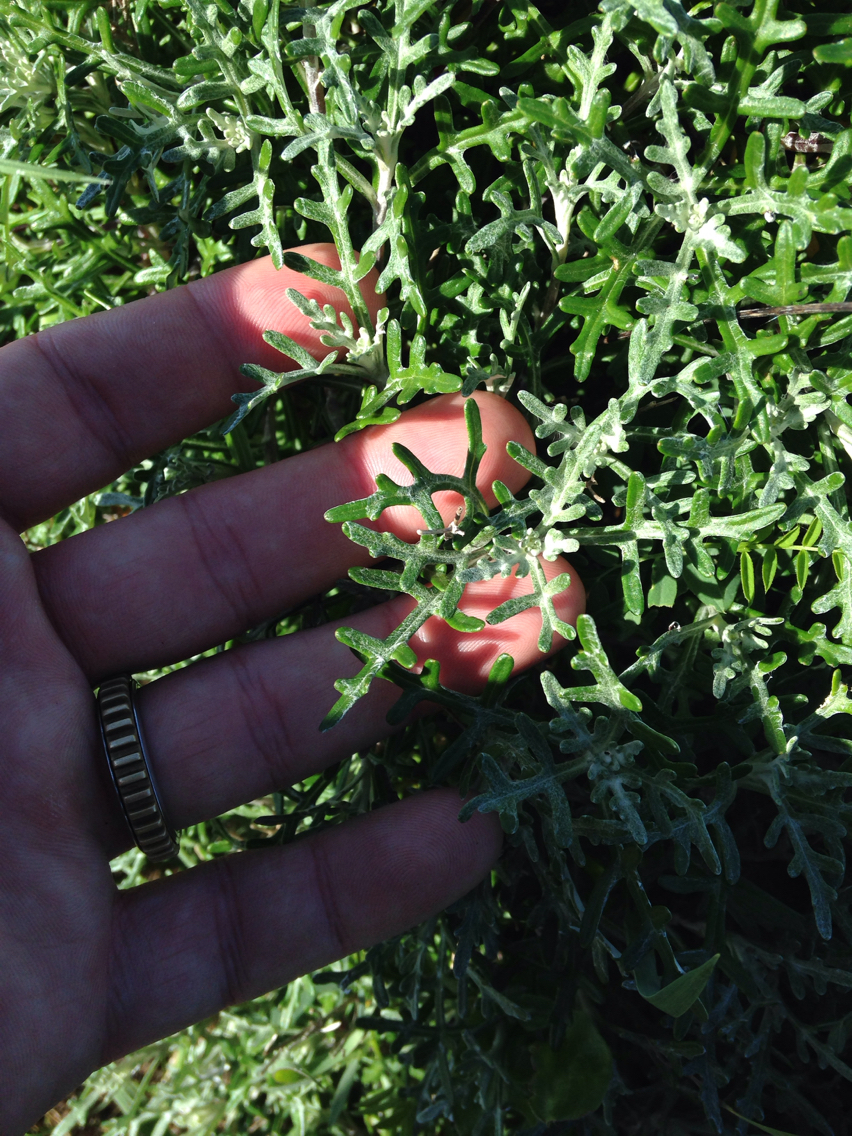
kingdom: Plantae
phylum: Tracheophyta
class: Magnoliopsida
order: Asterales
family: Asteraceae
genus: Eriophyllum
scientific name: Eriophyllum staechadifolium
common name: Lizardtail
